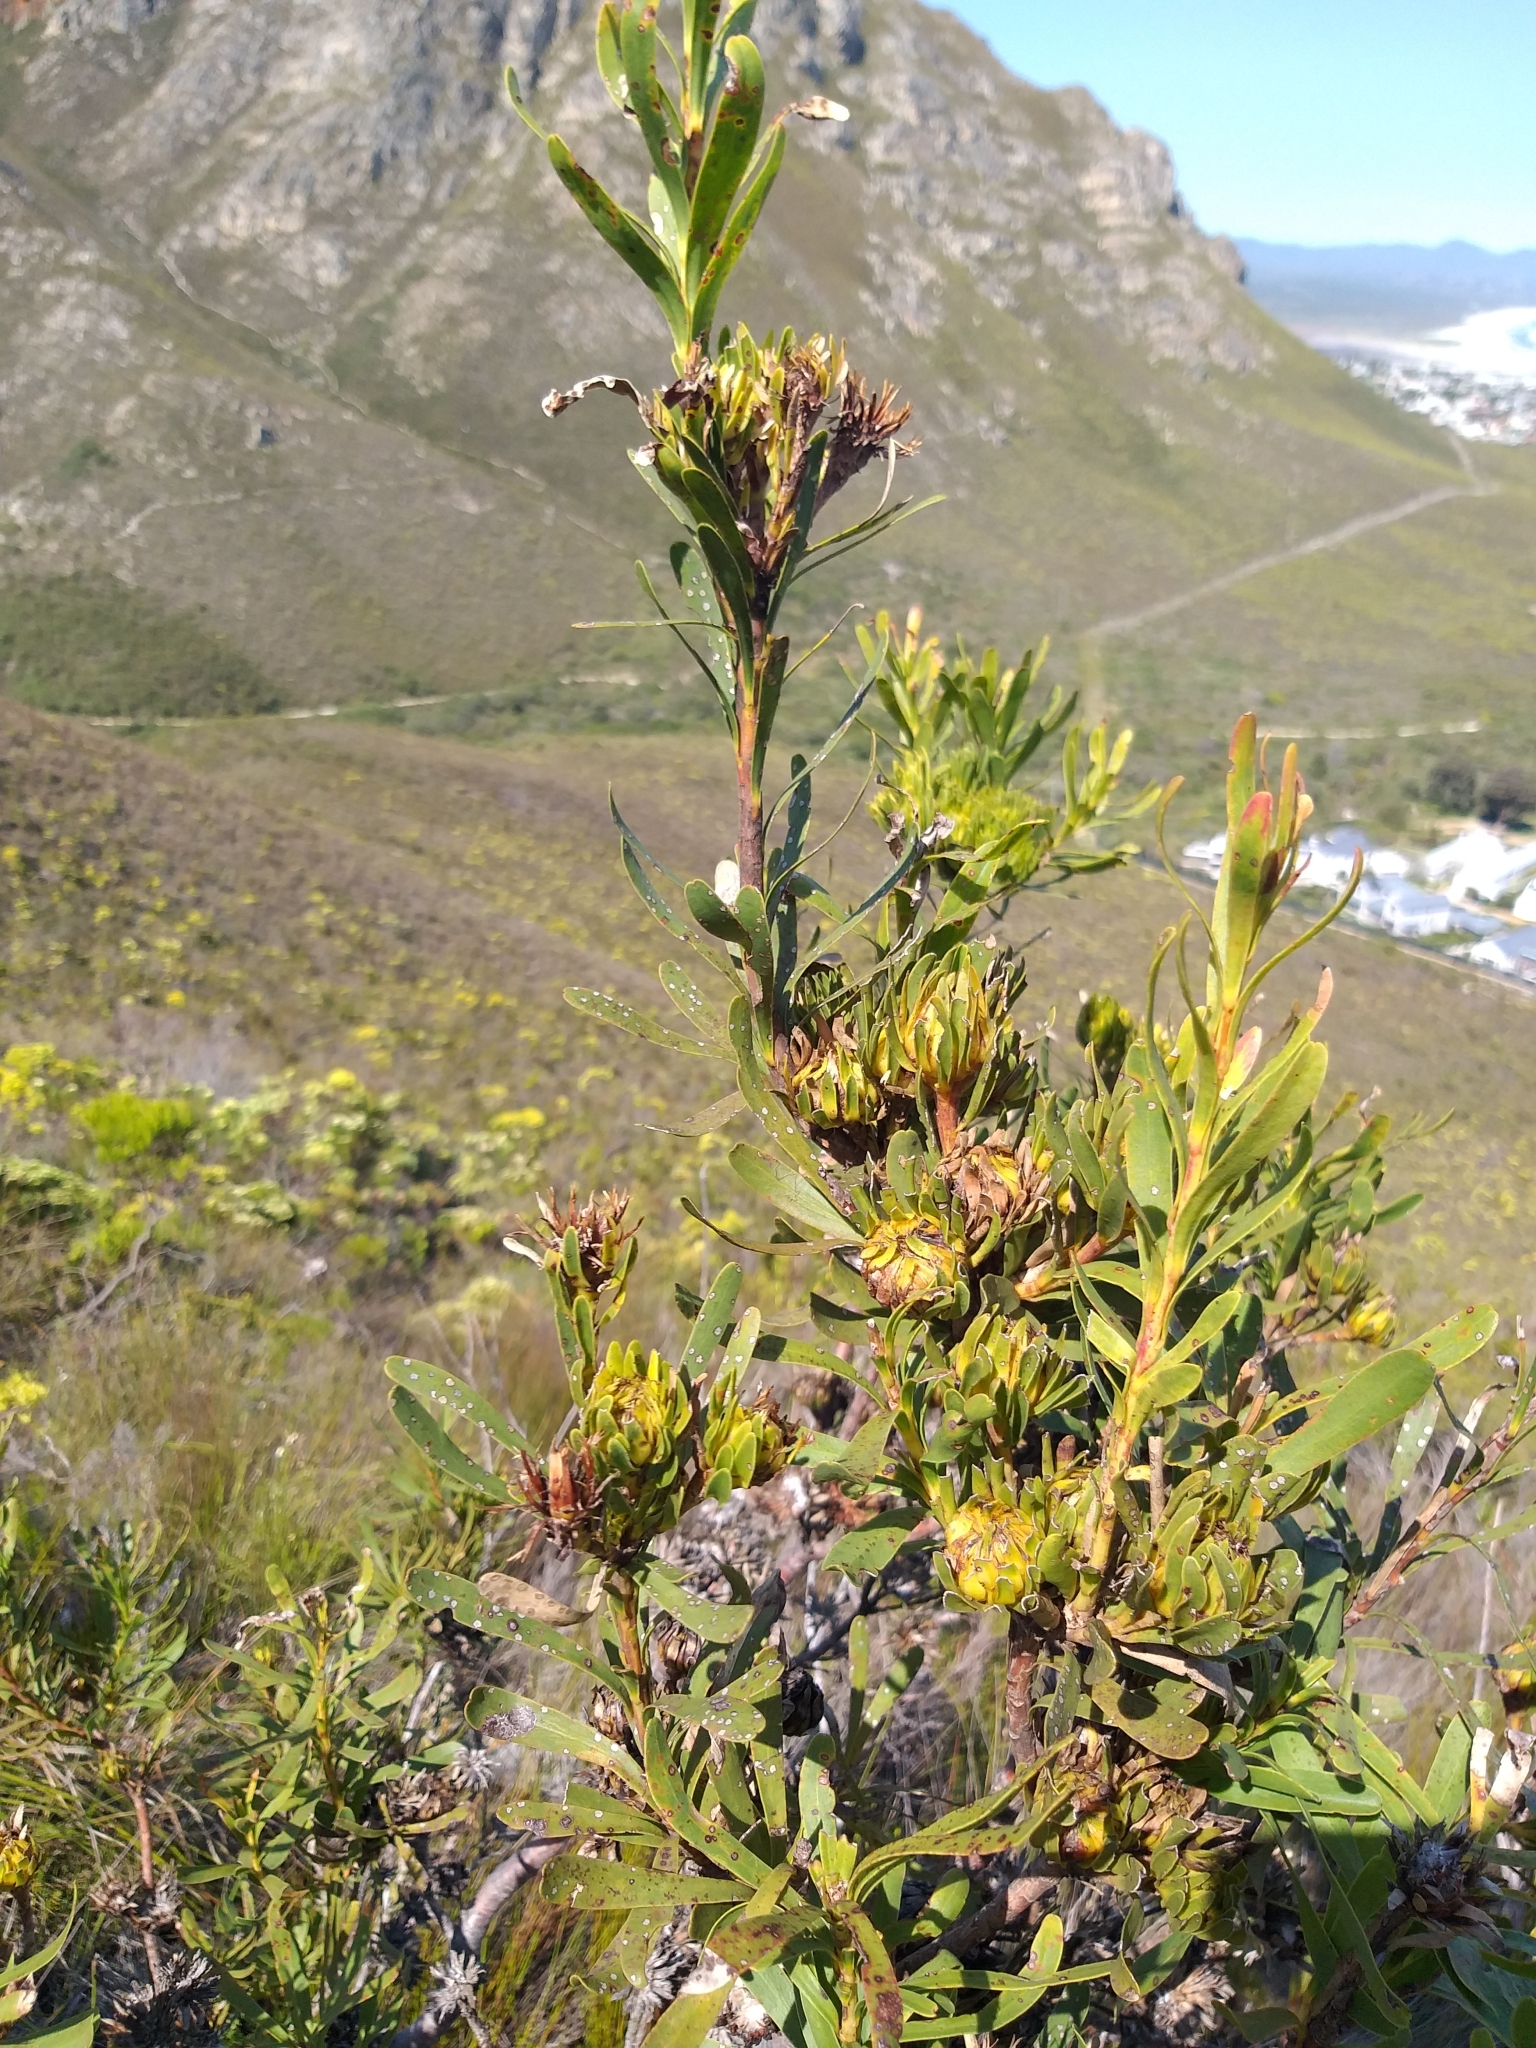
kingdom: Plantae
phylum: Tracheophyta
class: Magnoliopsida
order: Proteales
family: Proteaceae
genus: Aulax
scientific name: Aulax umbellata
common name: Broad-leaf featherbush
